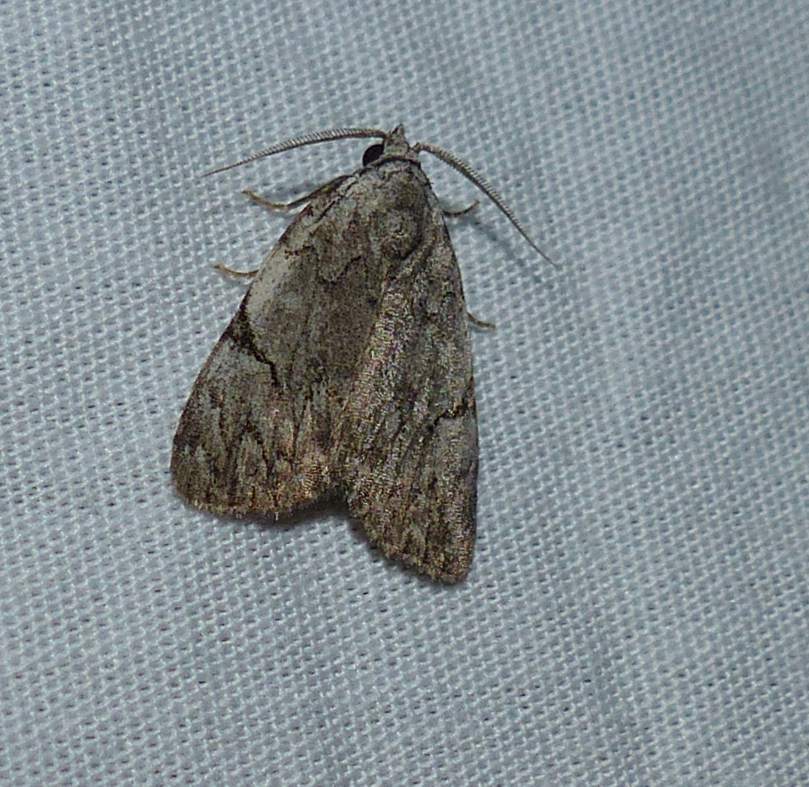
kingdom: Animalia
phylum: Arthropoda
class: Insecta
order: Lepidoptera
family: Noctuidae
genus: Balsa
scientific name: Balsa malana
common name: Many-dotted appleworm moth
